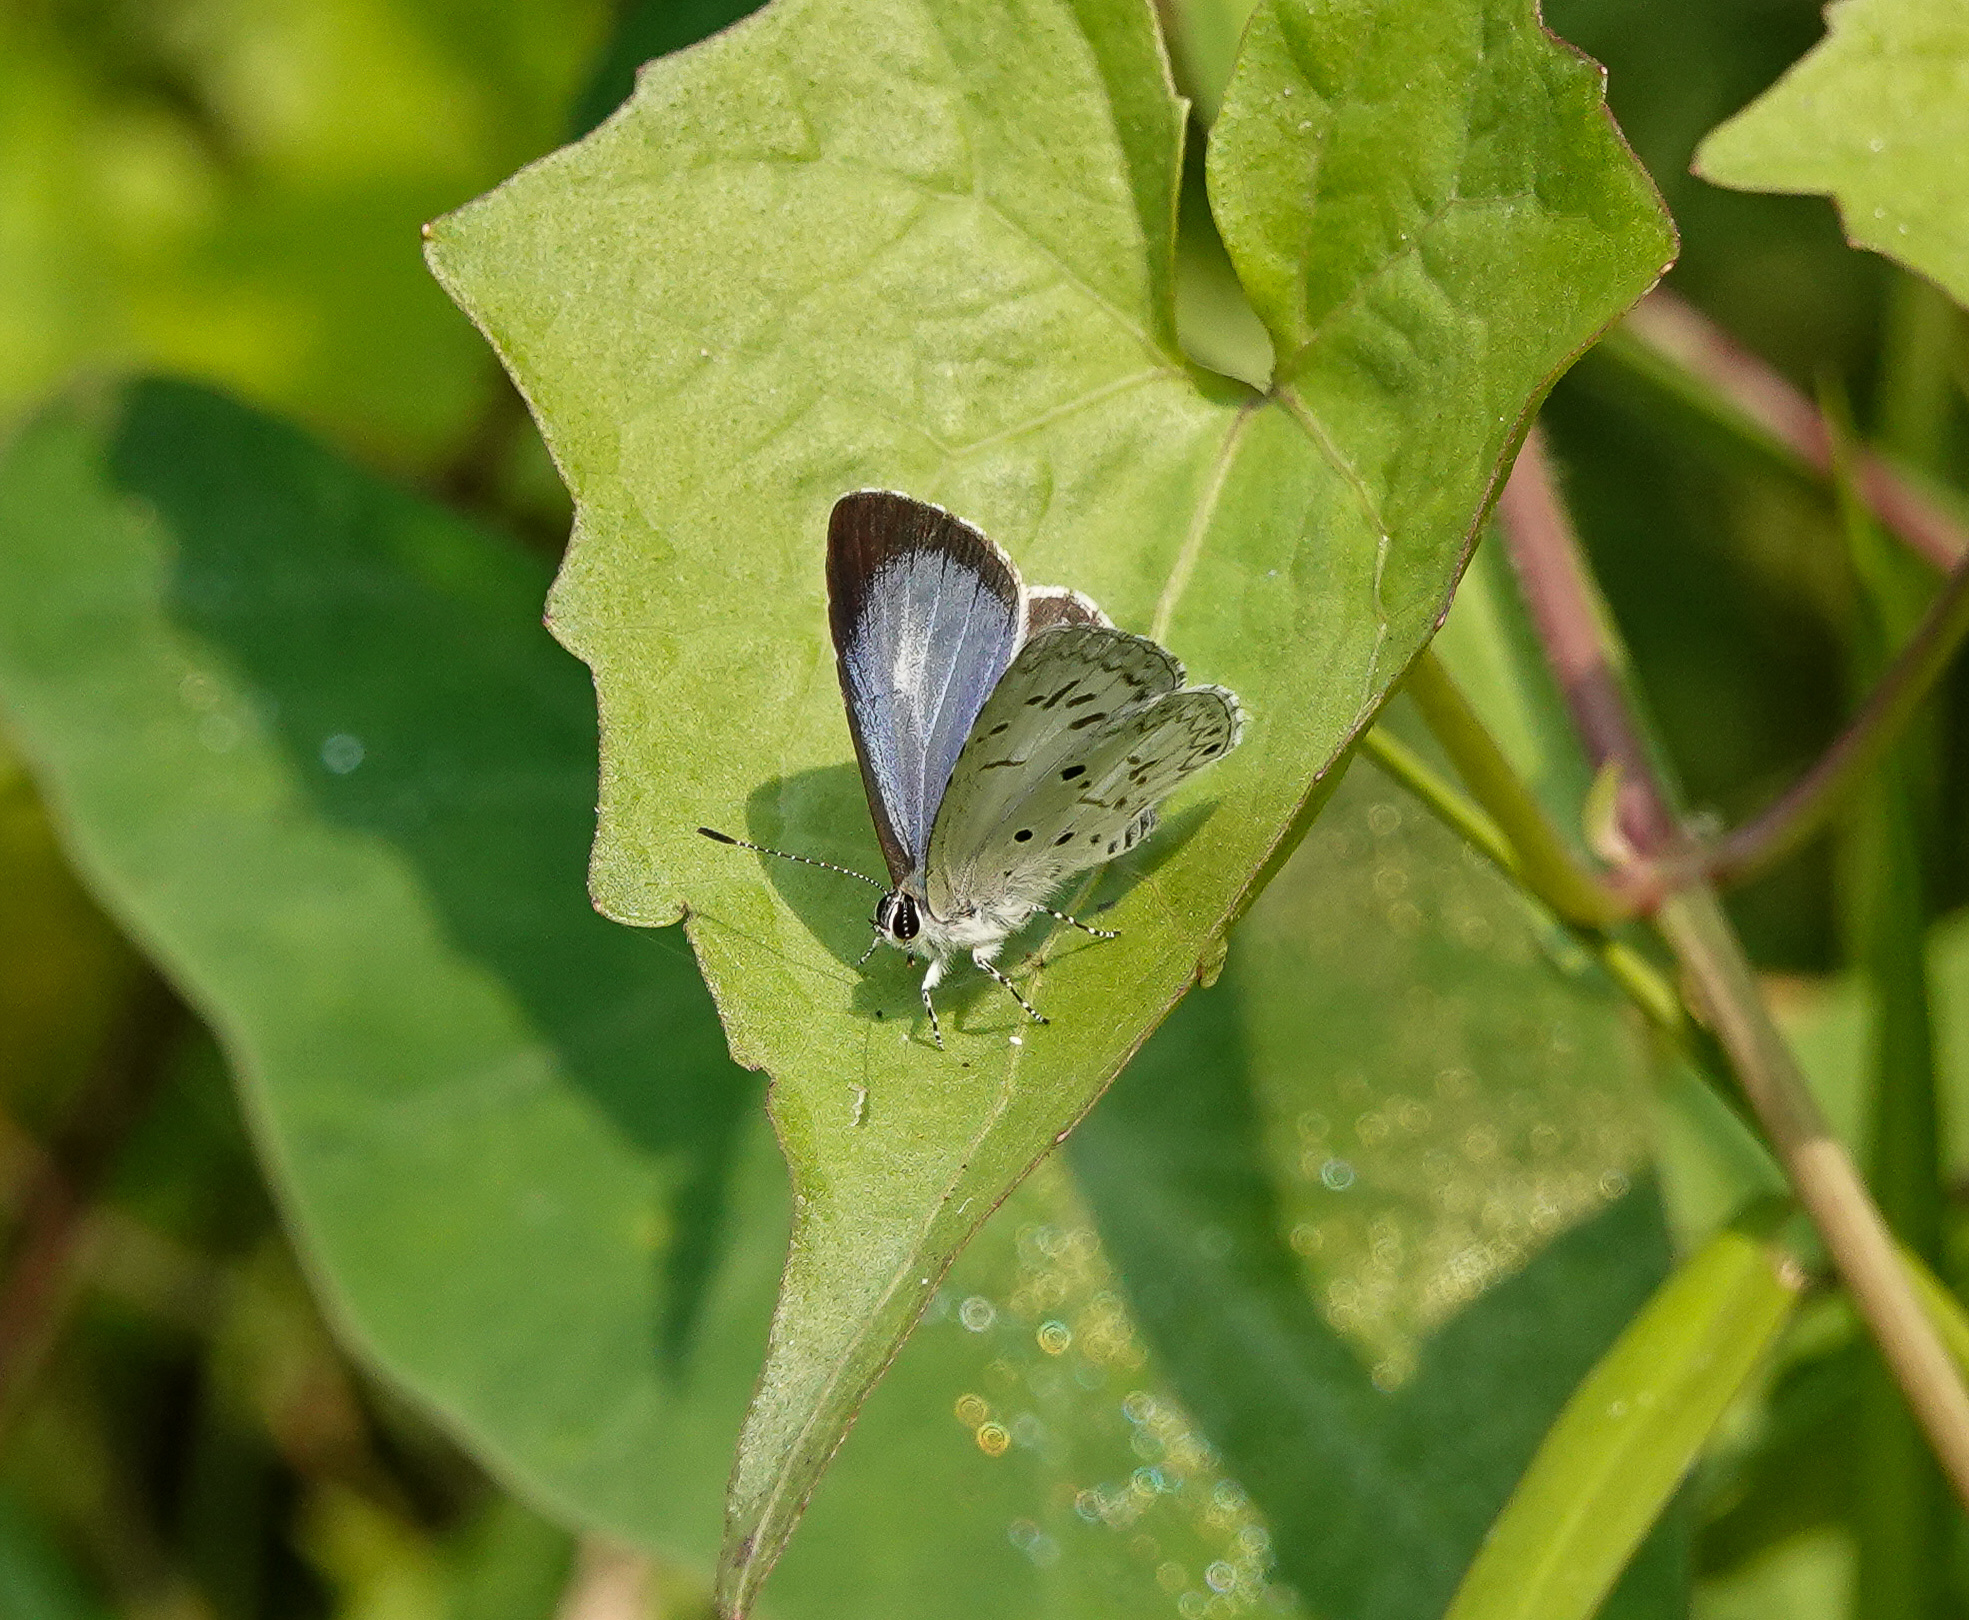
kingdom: Animalia
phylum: Arthropoda
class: Insecta
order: Lepidoptera
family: Lycaenidae
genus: Acytolepis
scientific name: Acytolepis puspa
